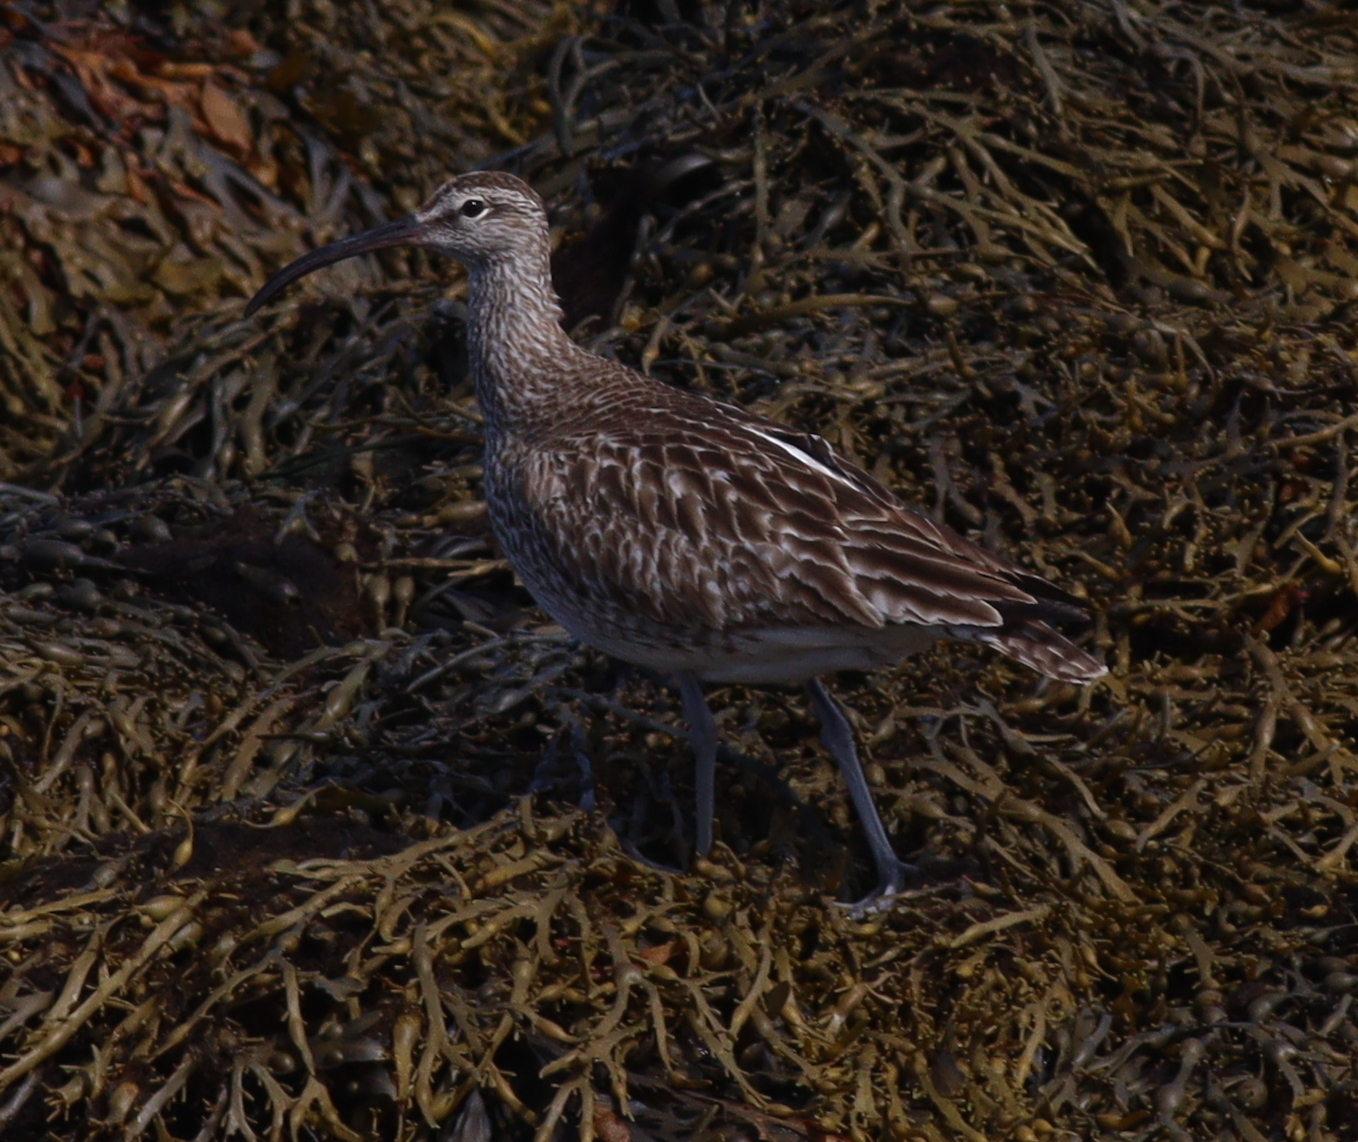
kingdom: Animalia
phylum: Chordata
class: Aves
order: Charadriiformes
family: Scolopacidae
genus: Numenius
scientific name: Numenius phaeopus
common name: Whimbrel
